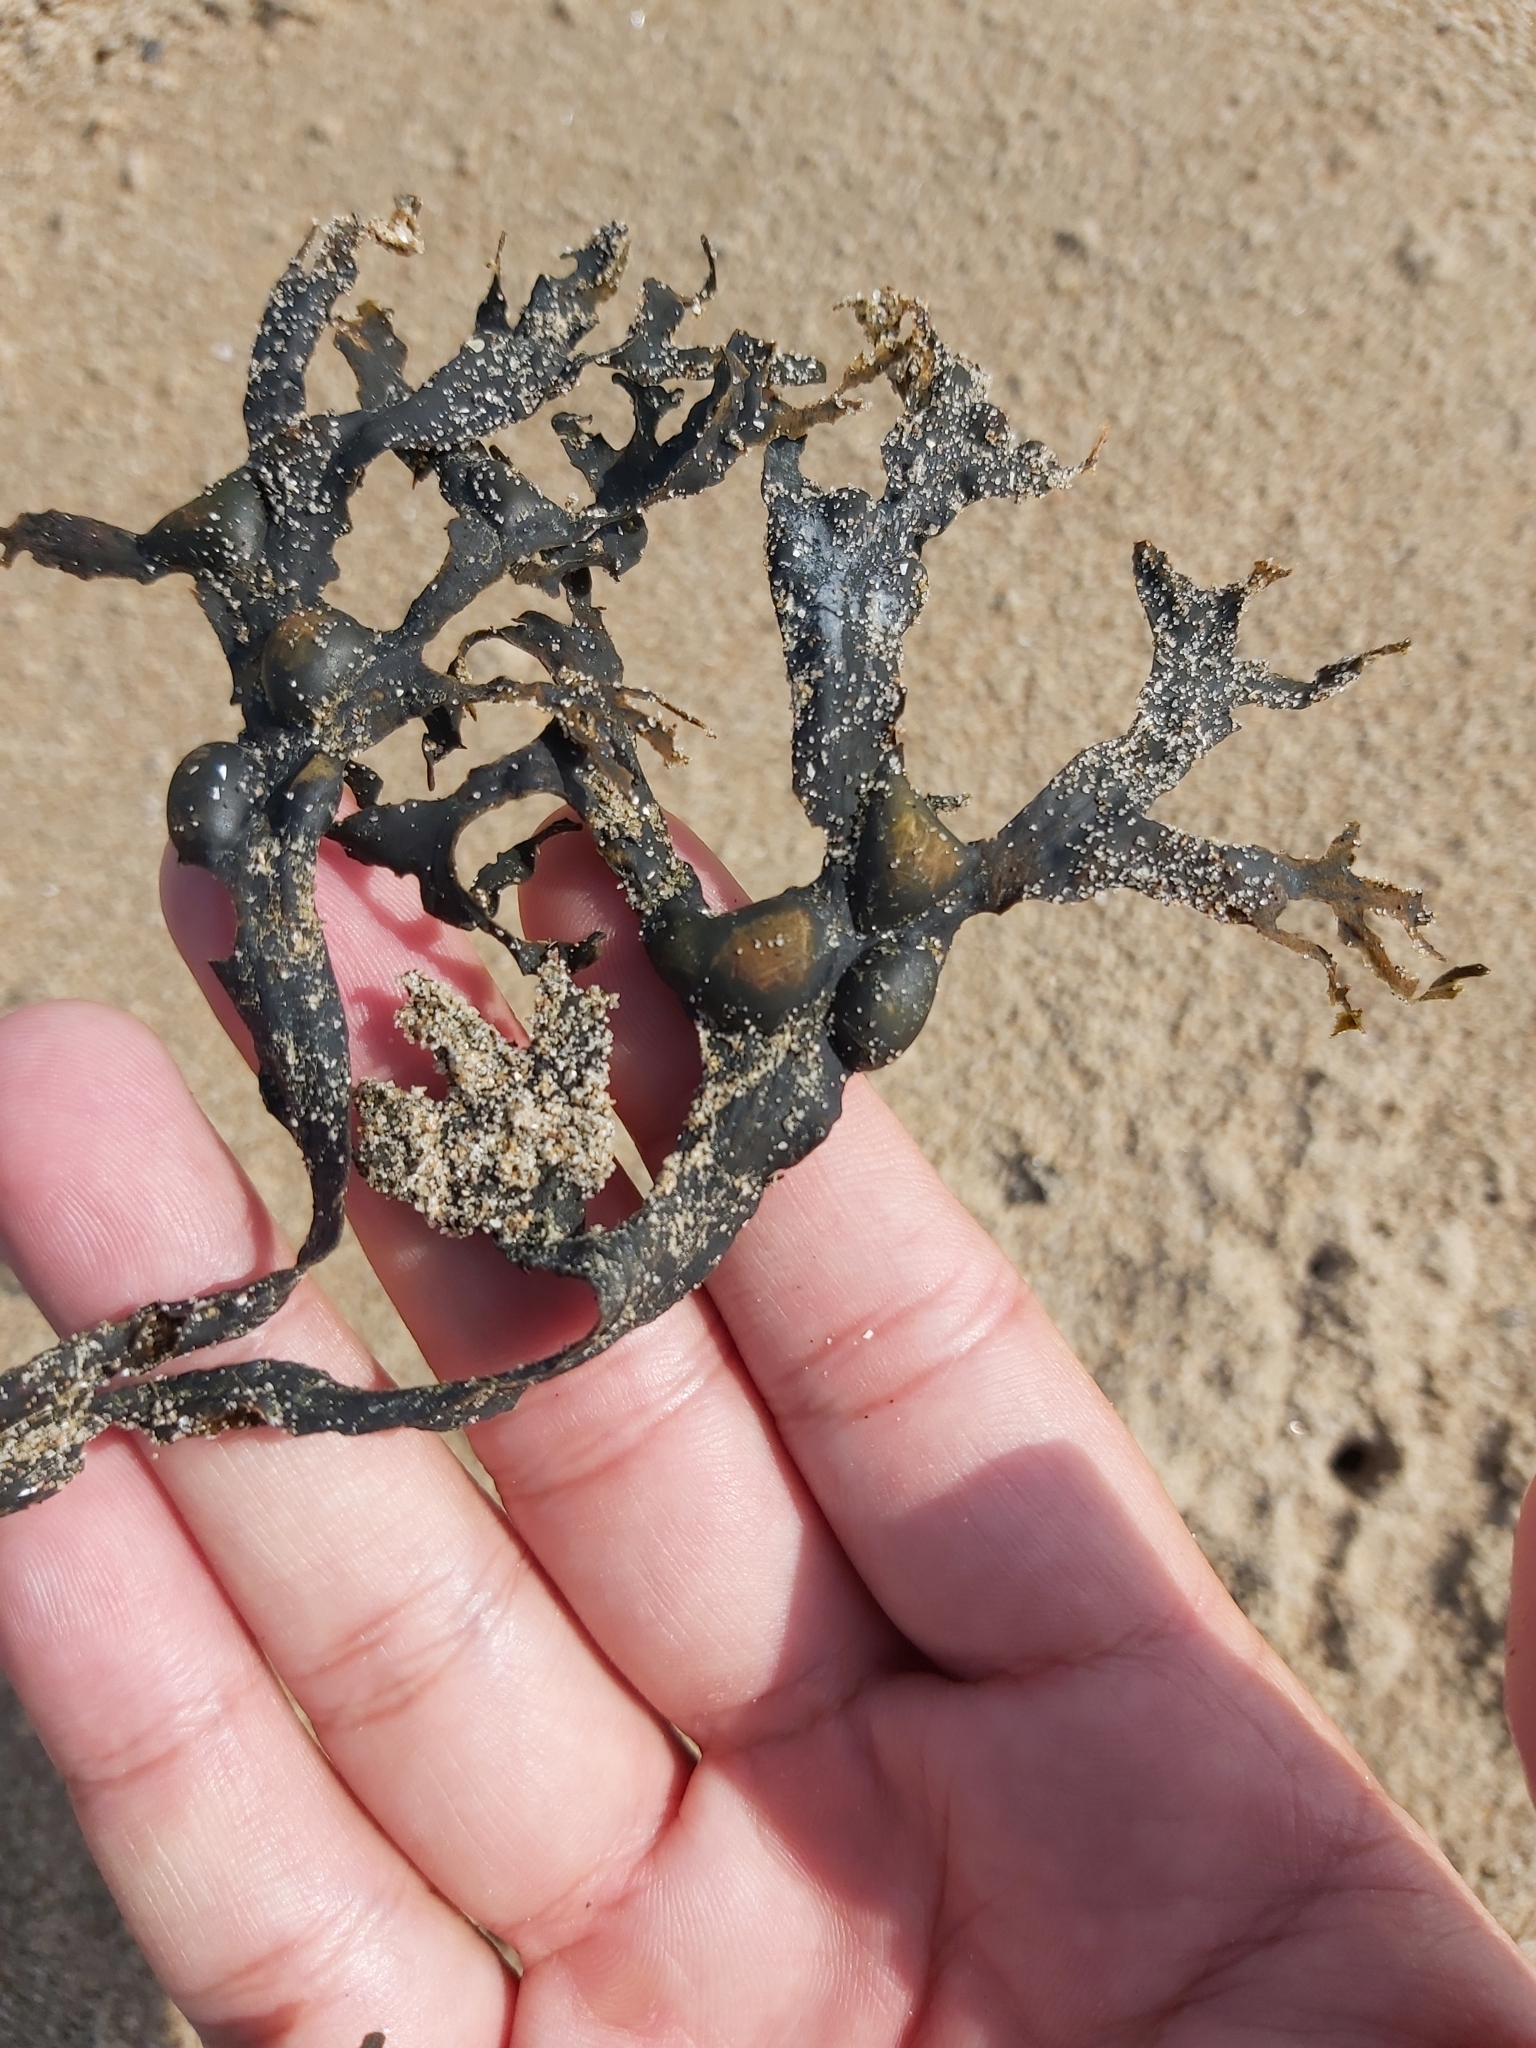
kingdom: Chromista
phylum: Ochrophyta
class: Phaeophyceae
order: Fucales
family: Fucaceae
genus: Fucus
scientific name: Fucus vesiculosus
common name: Bladder wrack
